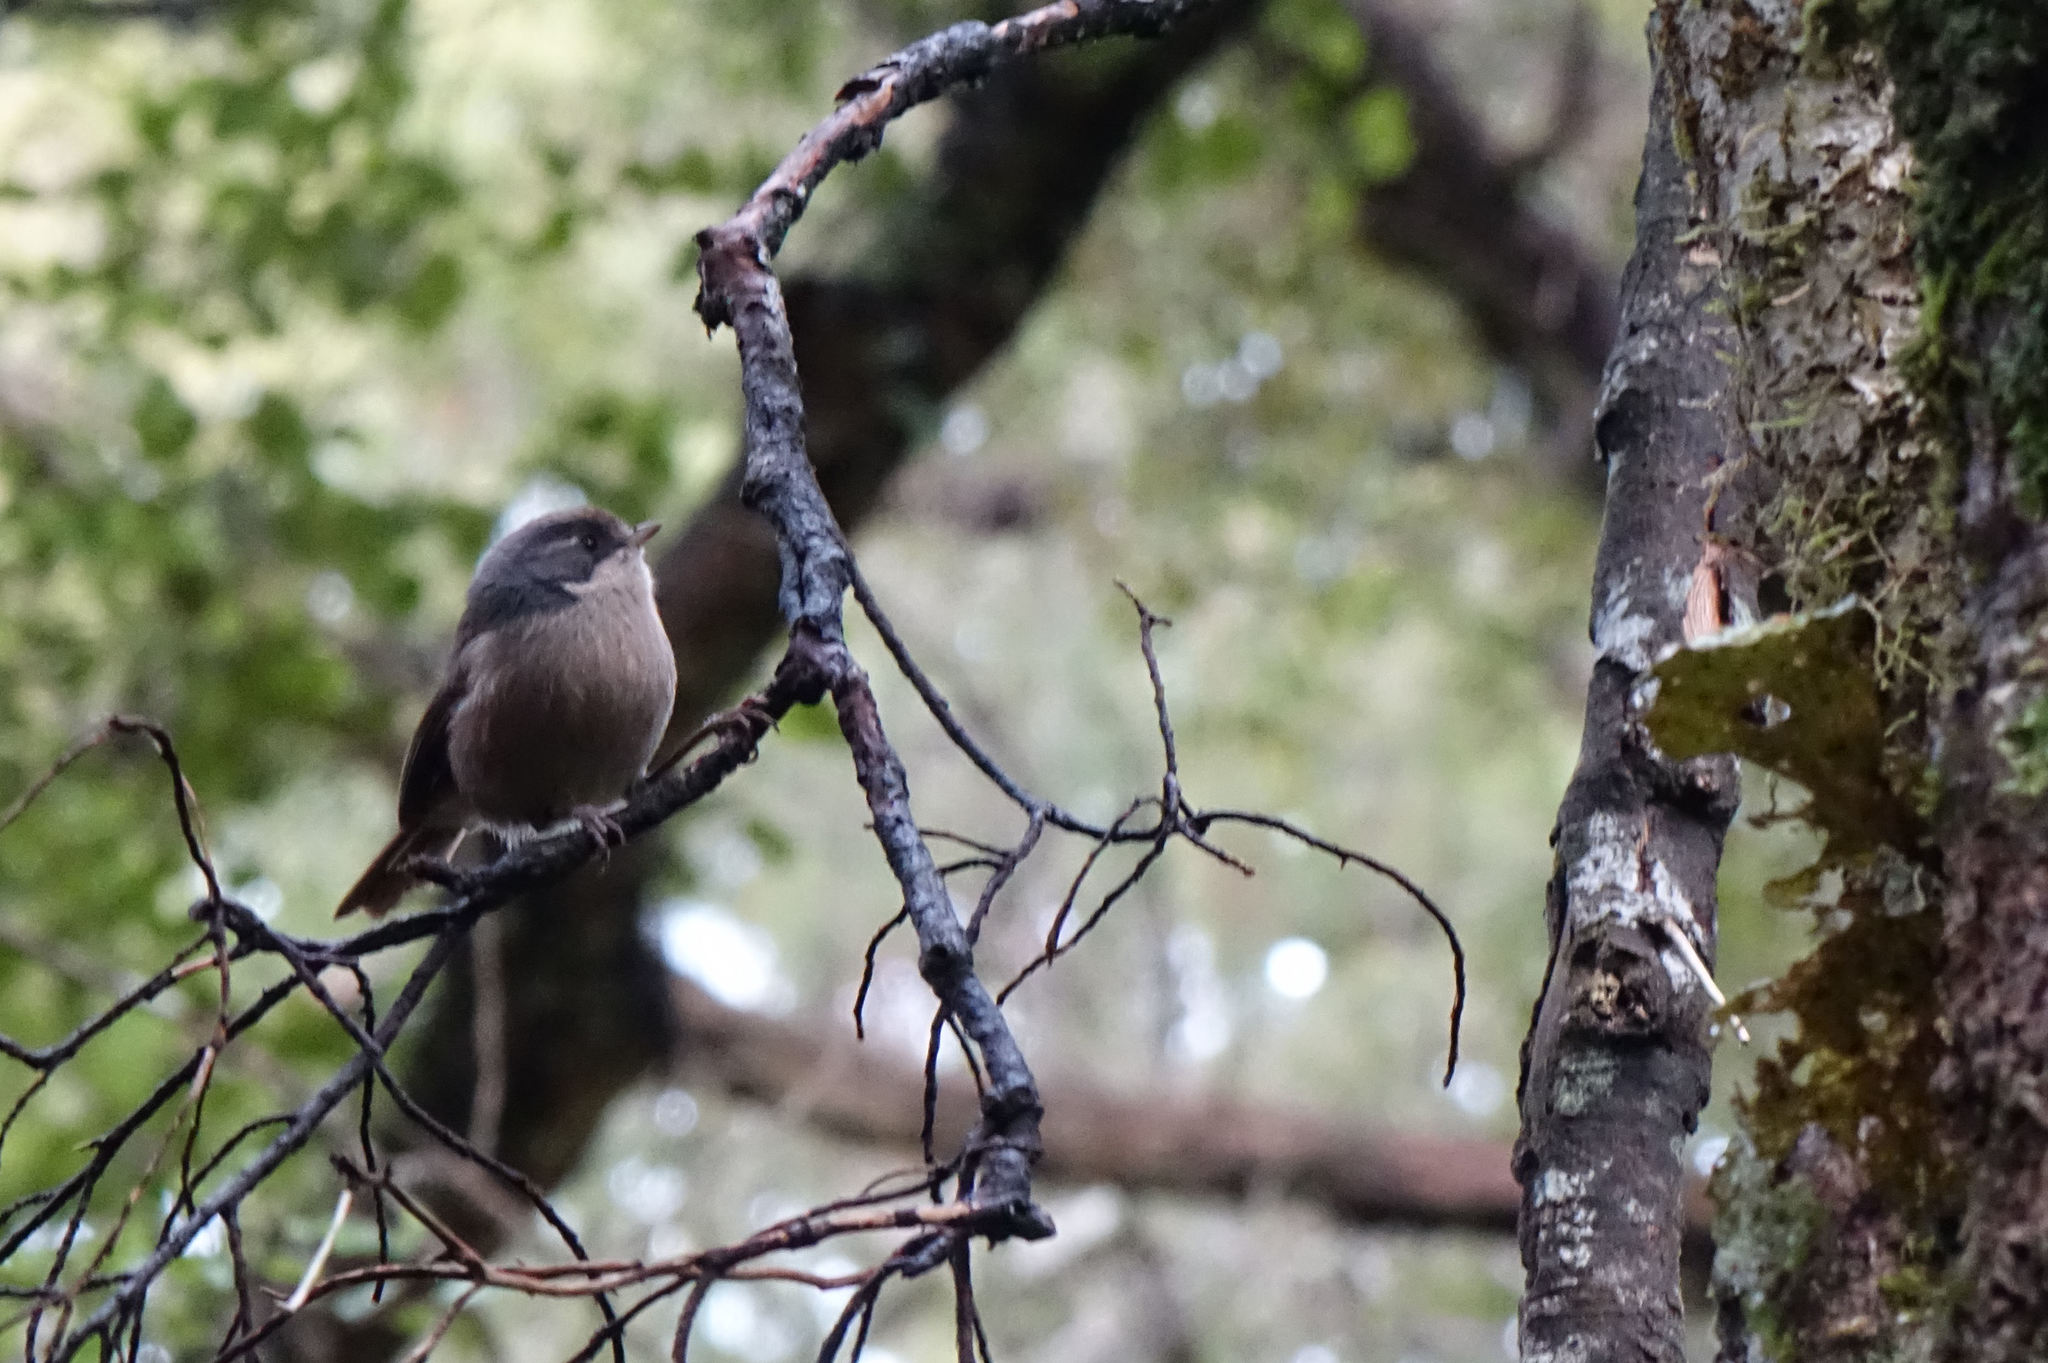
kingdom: Animalia
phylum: Chordata
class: Aves
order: Passeriformes
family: Acanthizidae
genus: Finschia
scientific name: Finschia novaeseelandiae
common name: Pipipi
